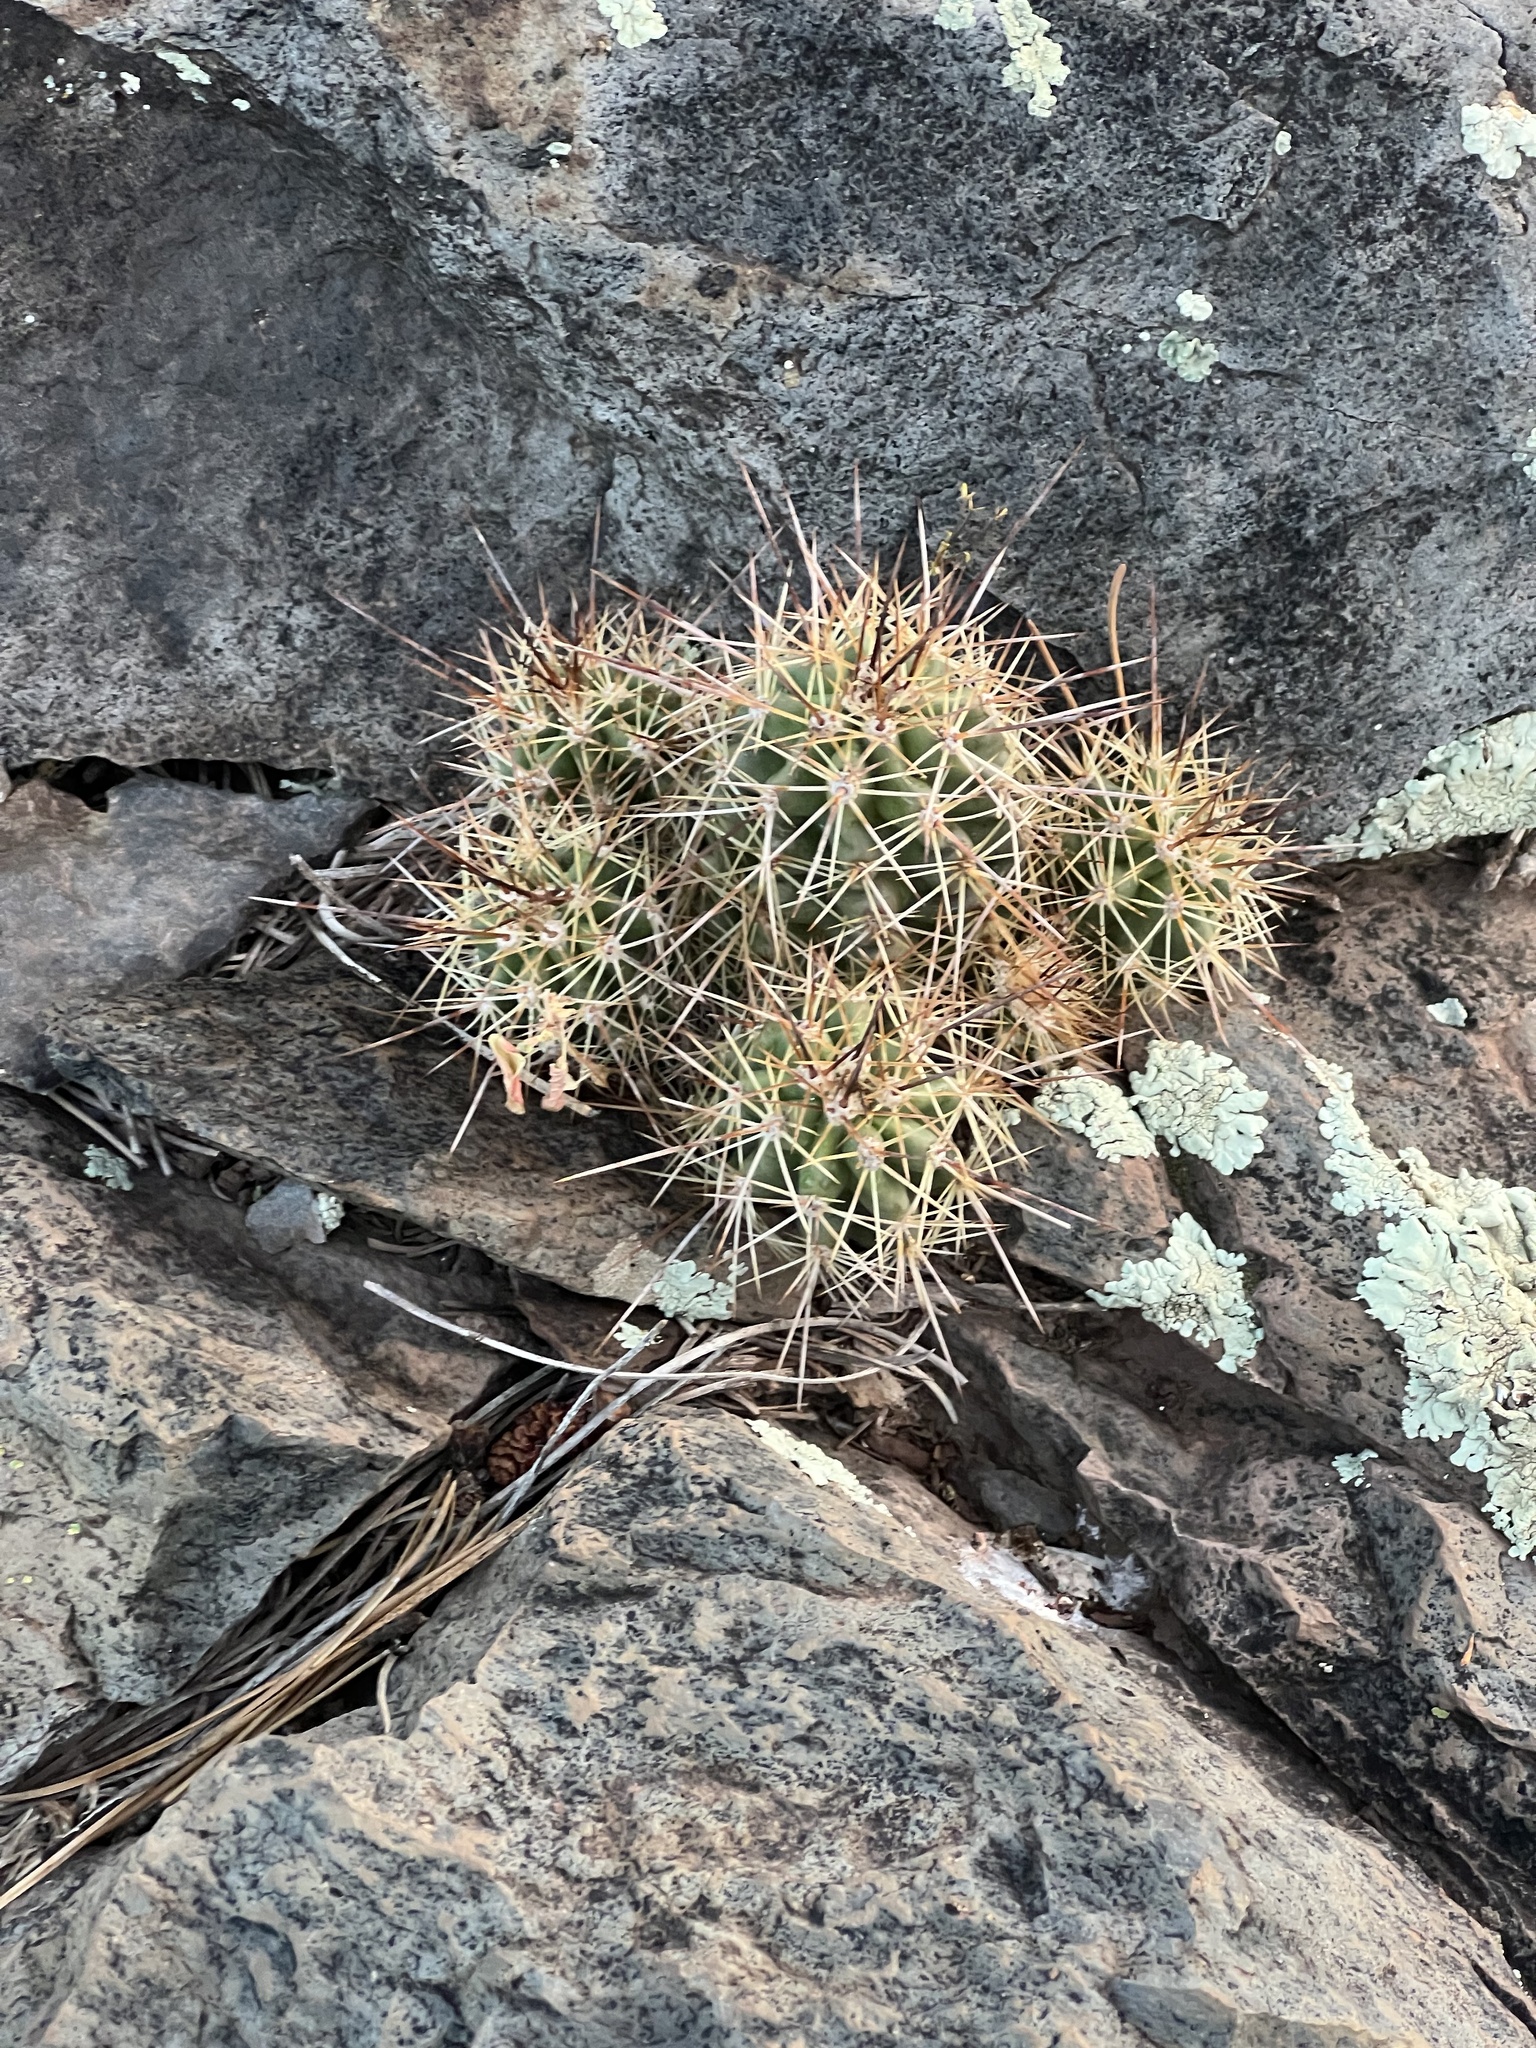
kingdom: Plantae
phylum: Tracheophyta
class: Magnoliopsida
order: Caryophyllales
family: Cactaceae
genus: Echinocereus
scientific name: Echinocereus bakeri
